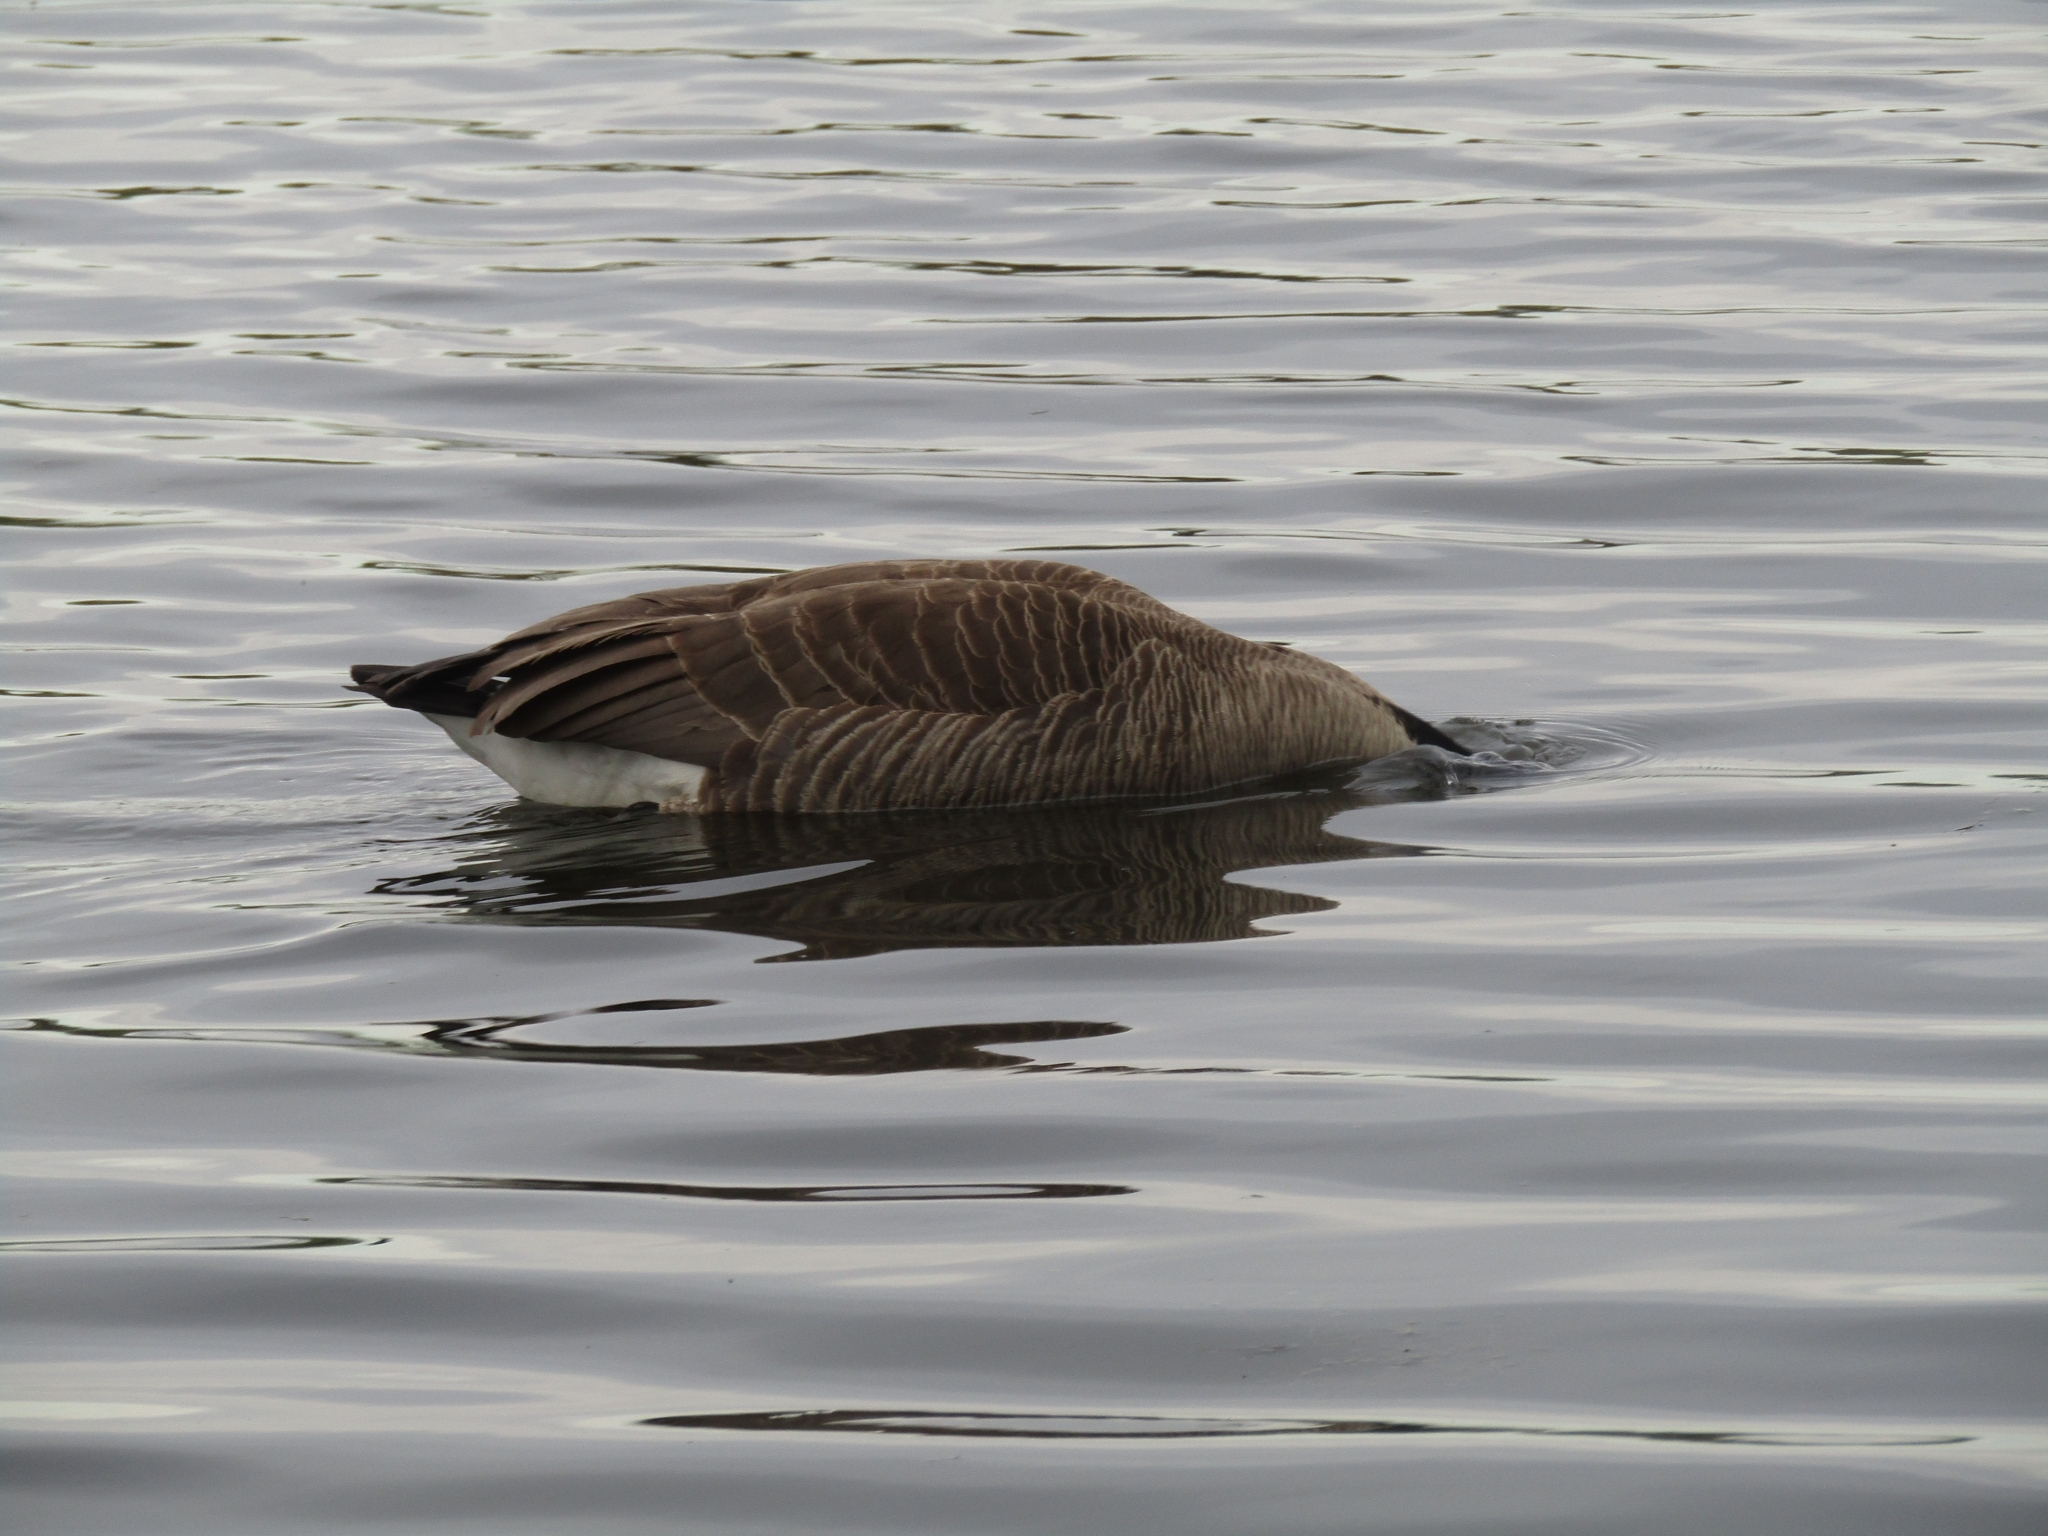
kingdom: Animalia
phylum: Chordata
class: Aves
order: Anseriformes
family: Anatidae
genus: Branta
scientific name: Branta canadensis
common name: Canada goose
